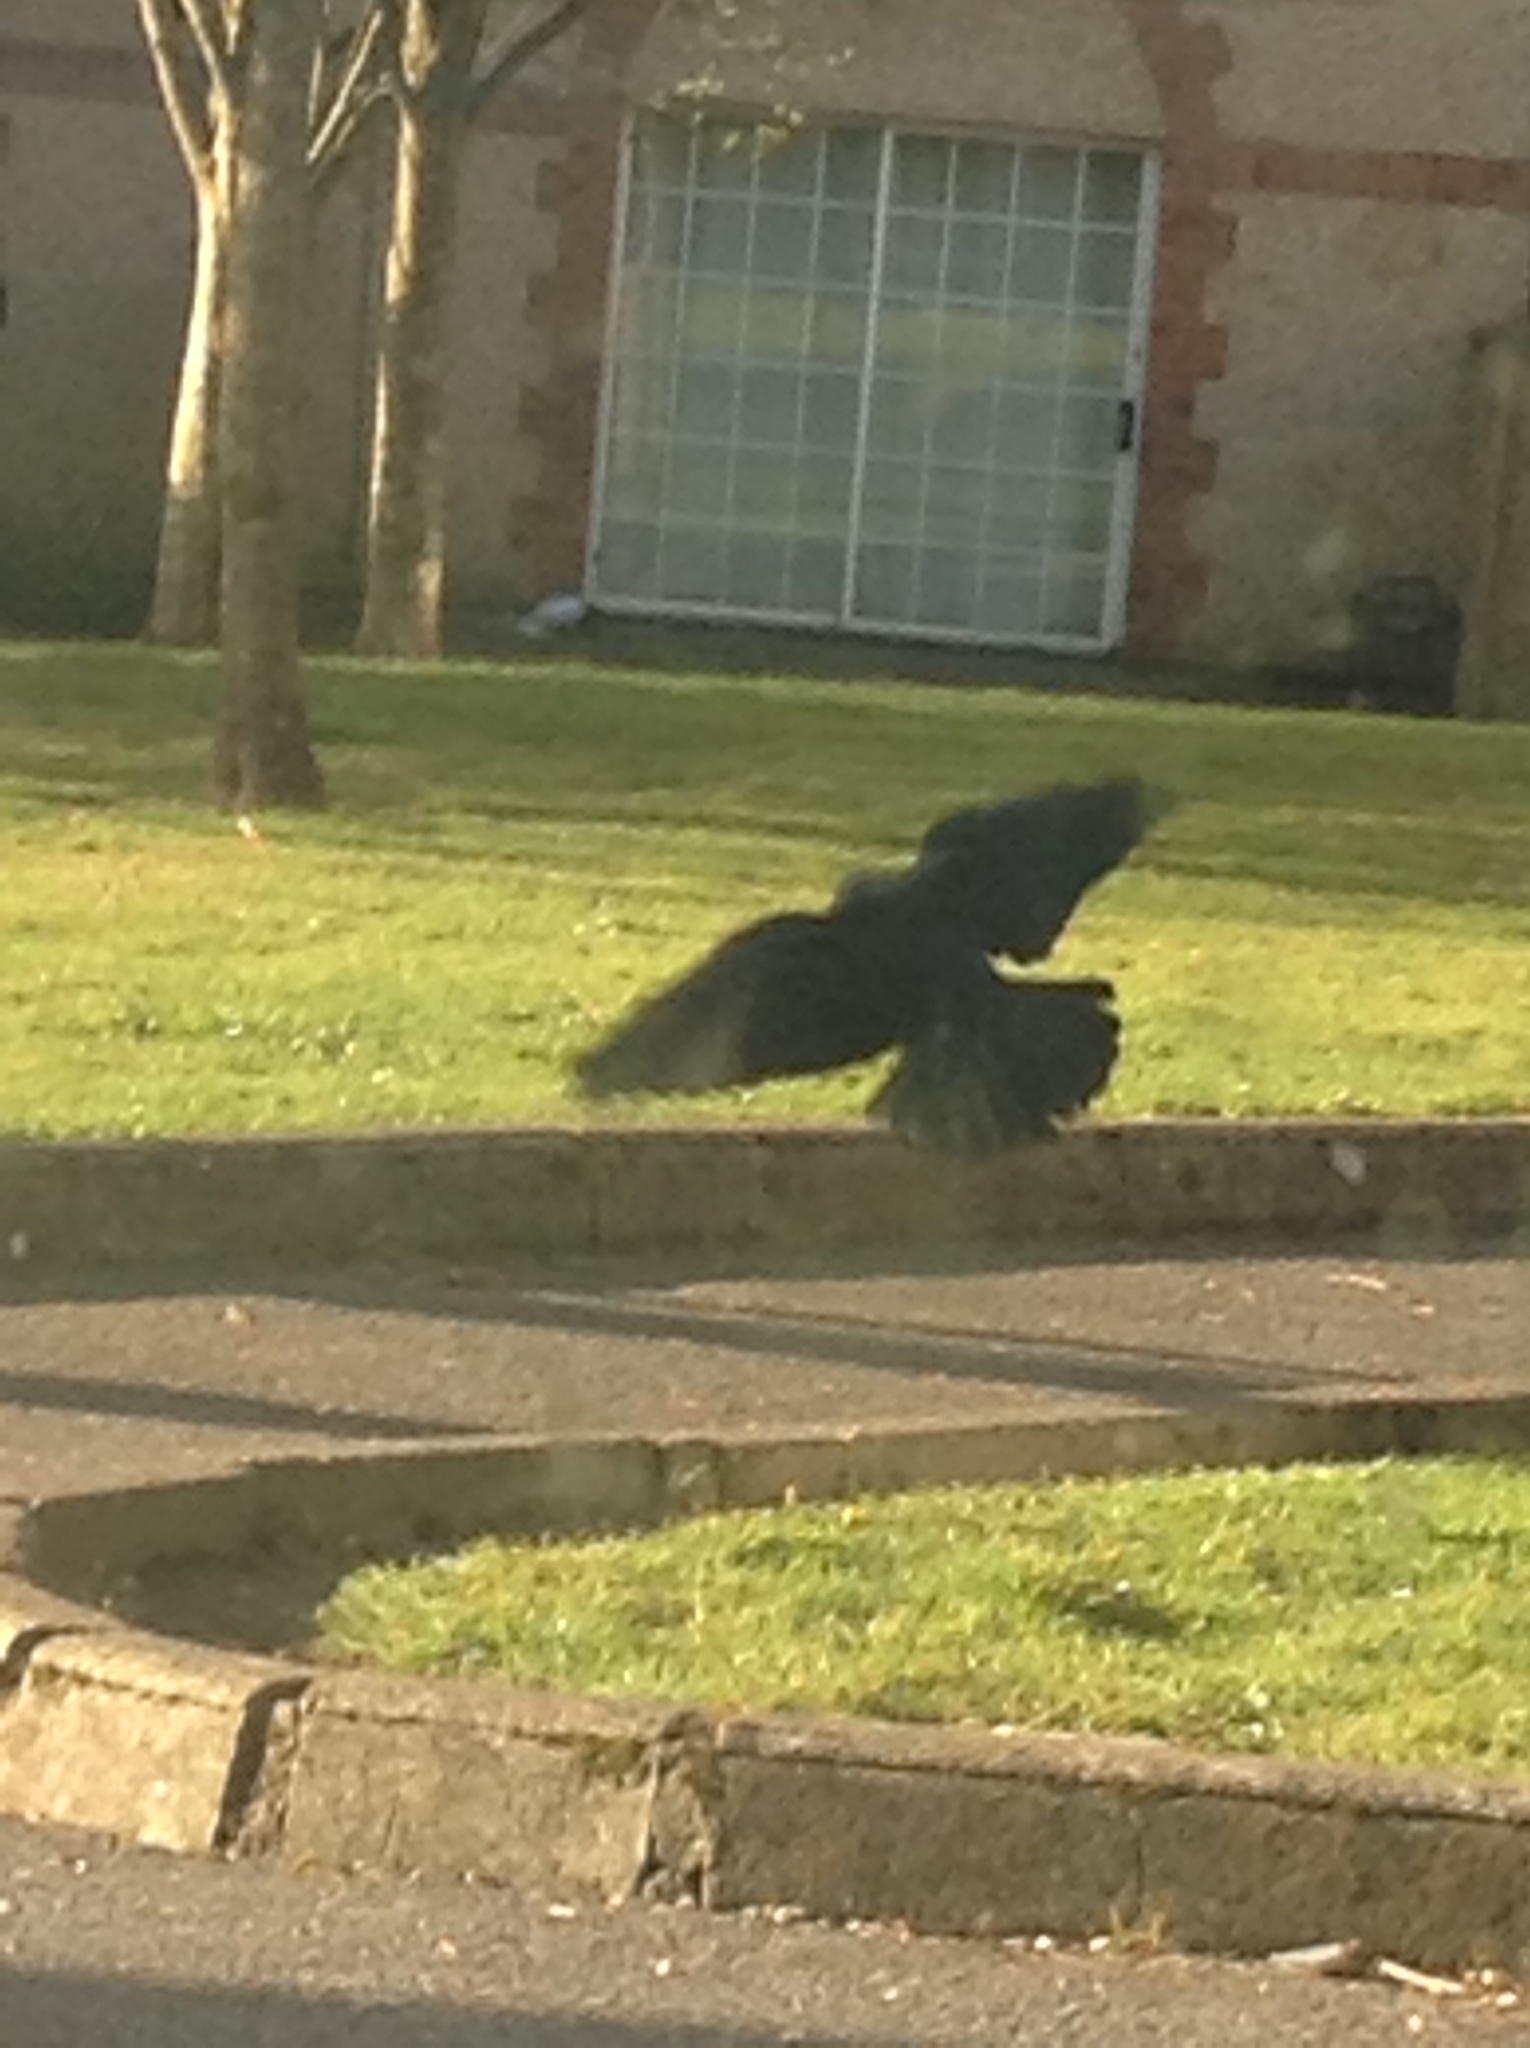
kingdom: Animalia
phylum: Chordata
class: Aves
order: Passeriformes
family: Corvidae
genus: Coloeus
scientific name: Coloeus monedula
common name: Western jackdaw
